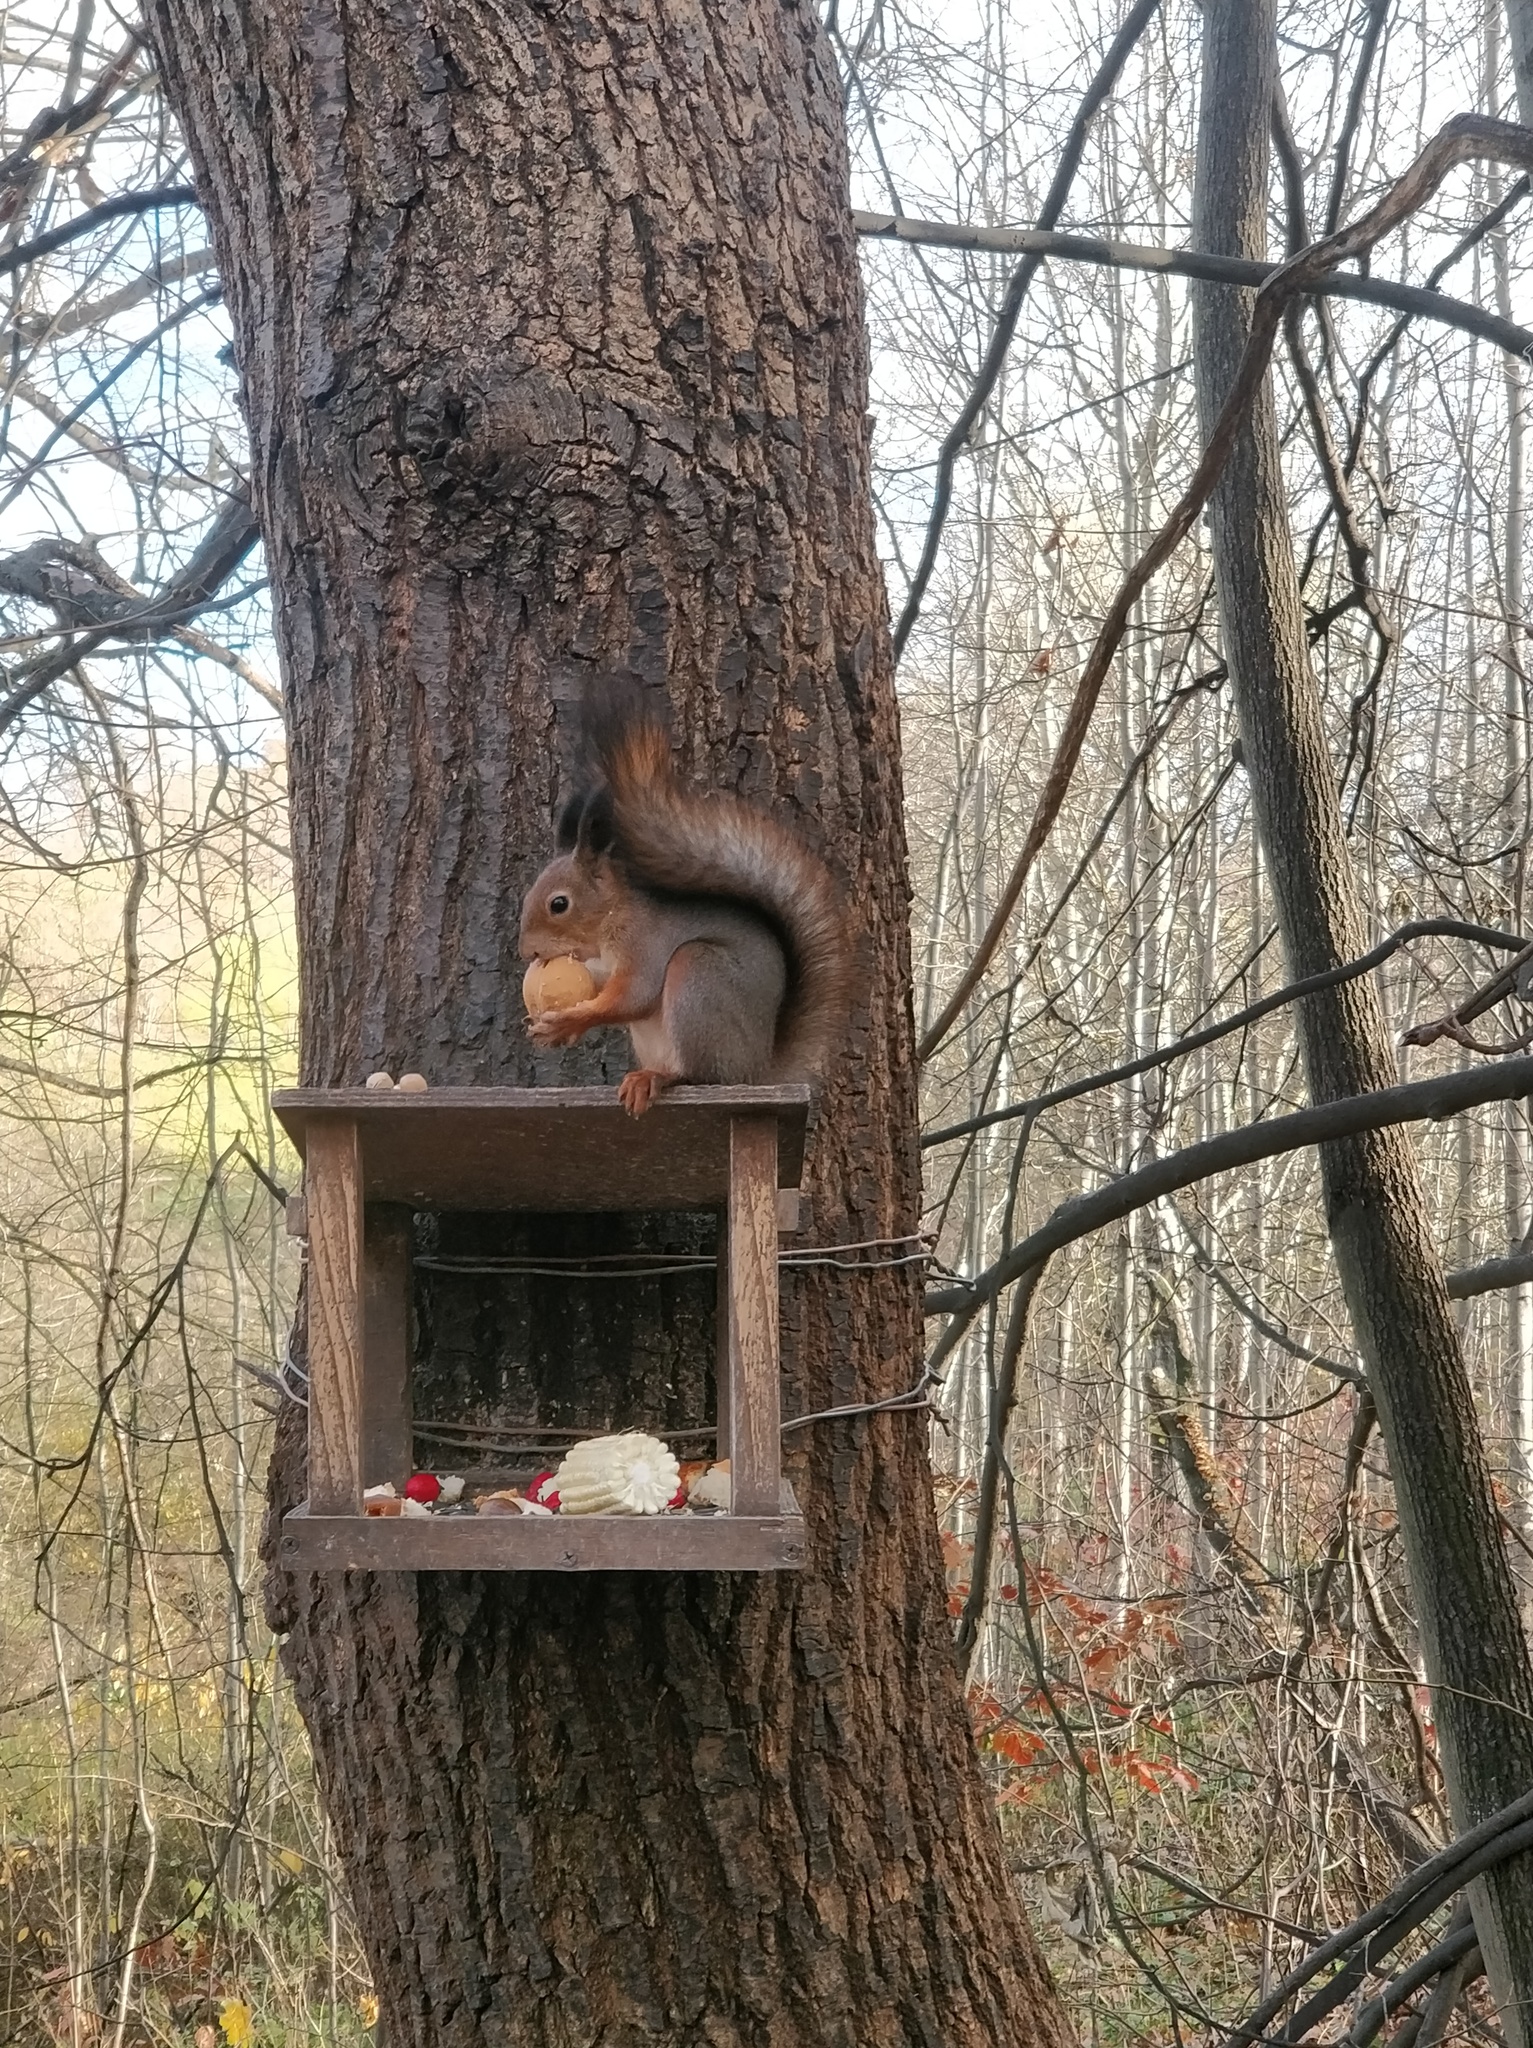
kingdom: Animalia
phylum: Chordata
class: Mammalia
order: Rodentia
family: Sciuridae
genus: Sciurus
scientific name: Sciurus vulgaris
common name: Eurasian red squirrel
